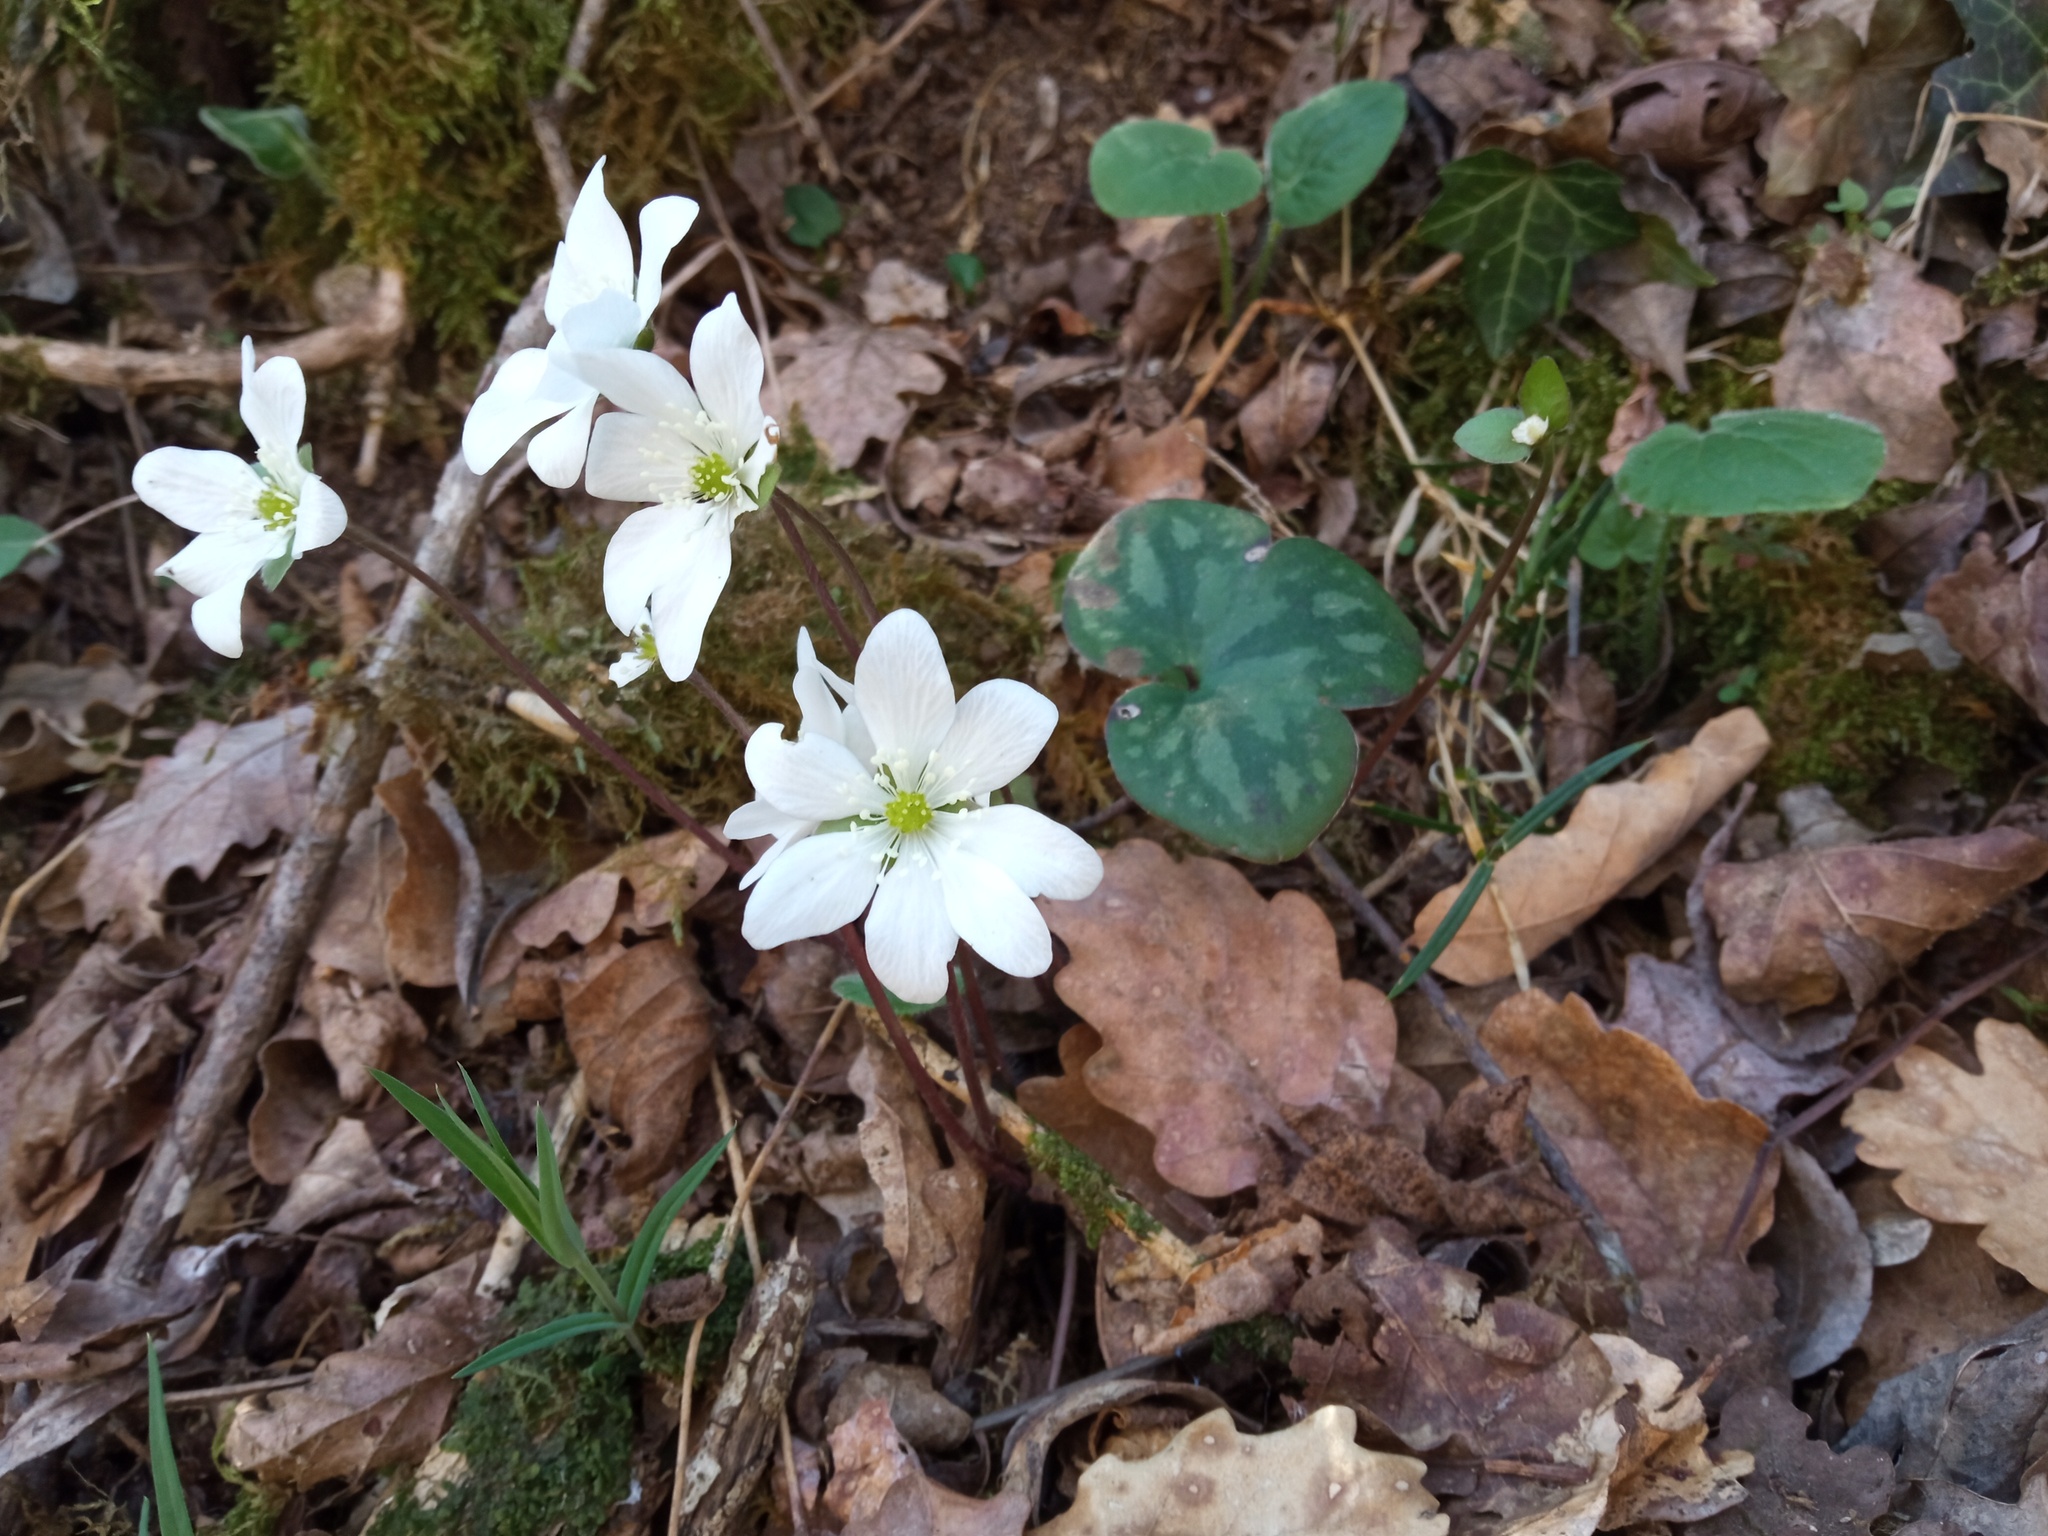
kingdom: Plantae
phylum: Tracheophyta
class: Magnoliopsida
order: Ranunculales
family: Ranunculaceae
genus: Hepatica
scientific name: Hepatica nobilis
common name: Liverleaf
